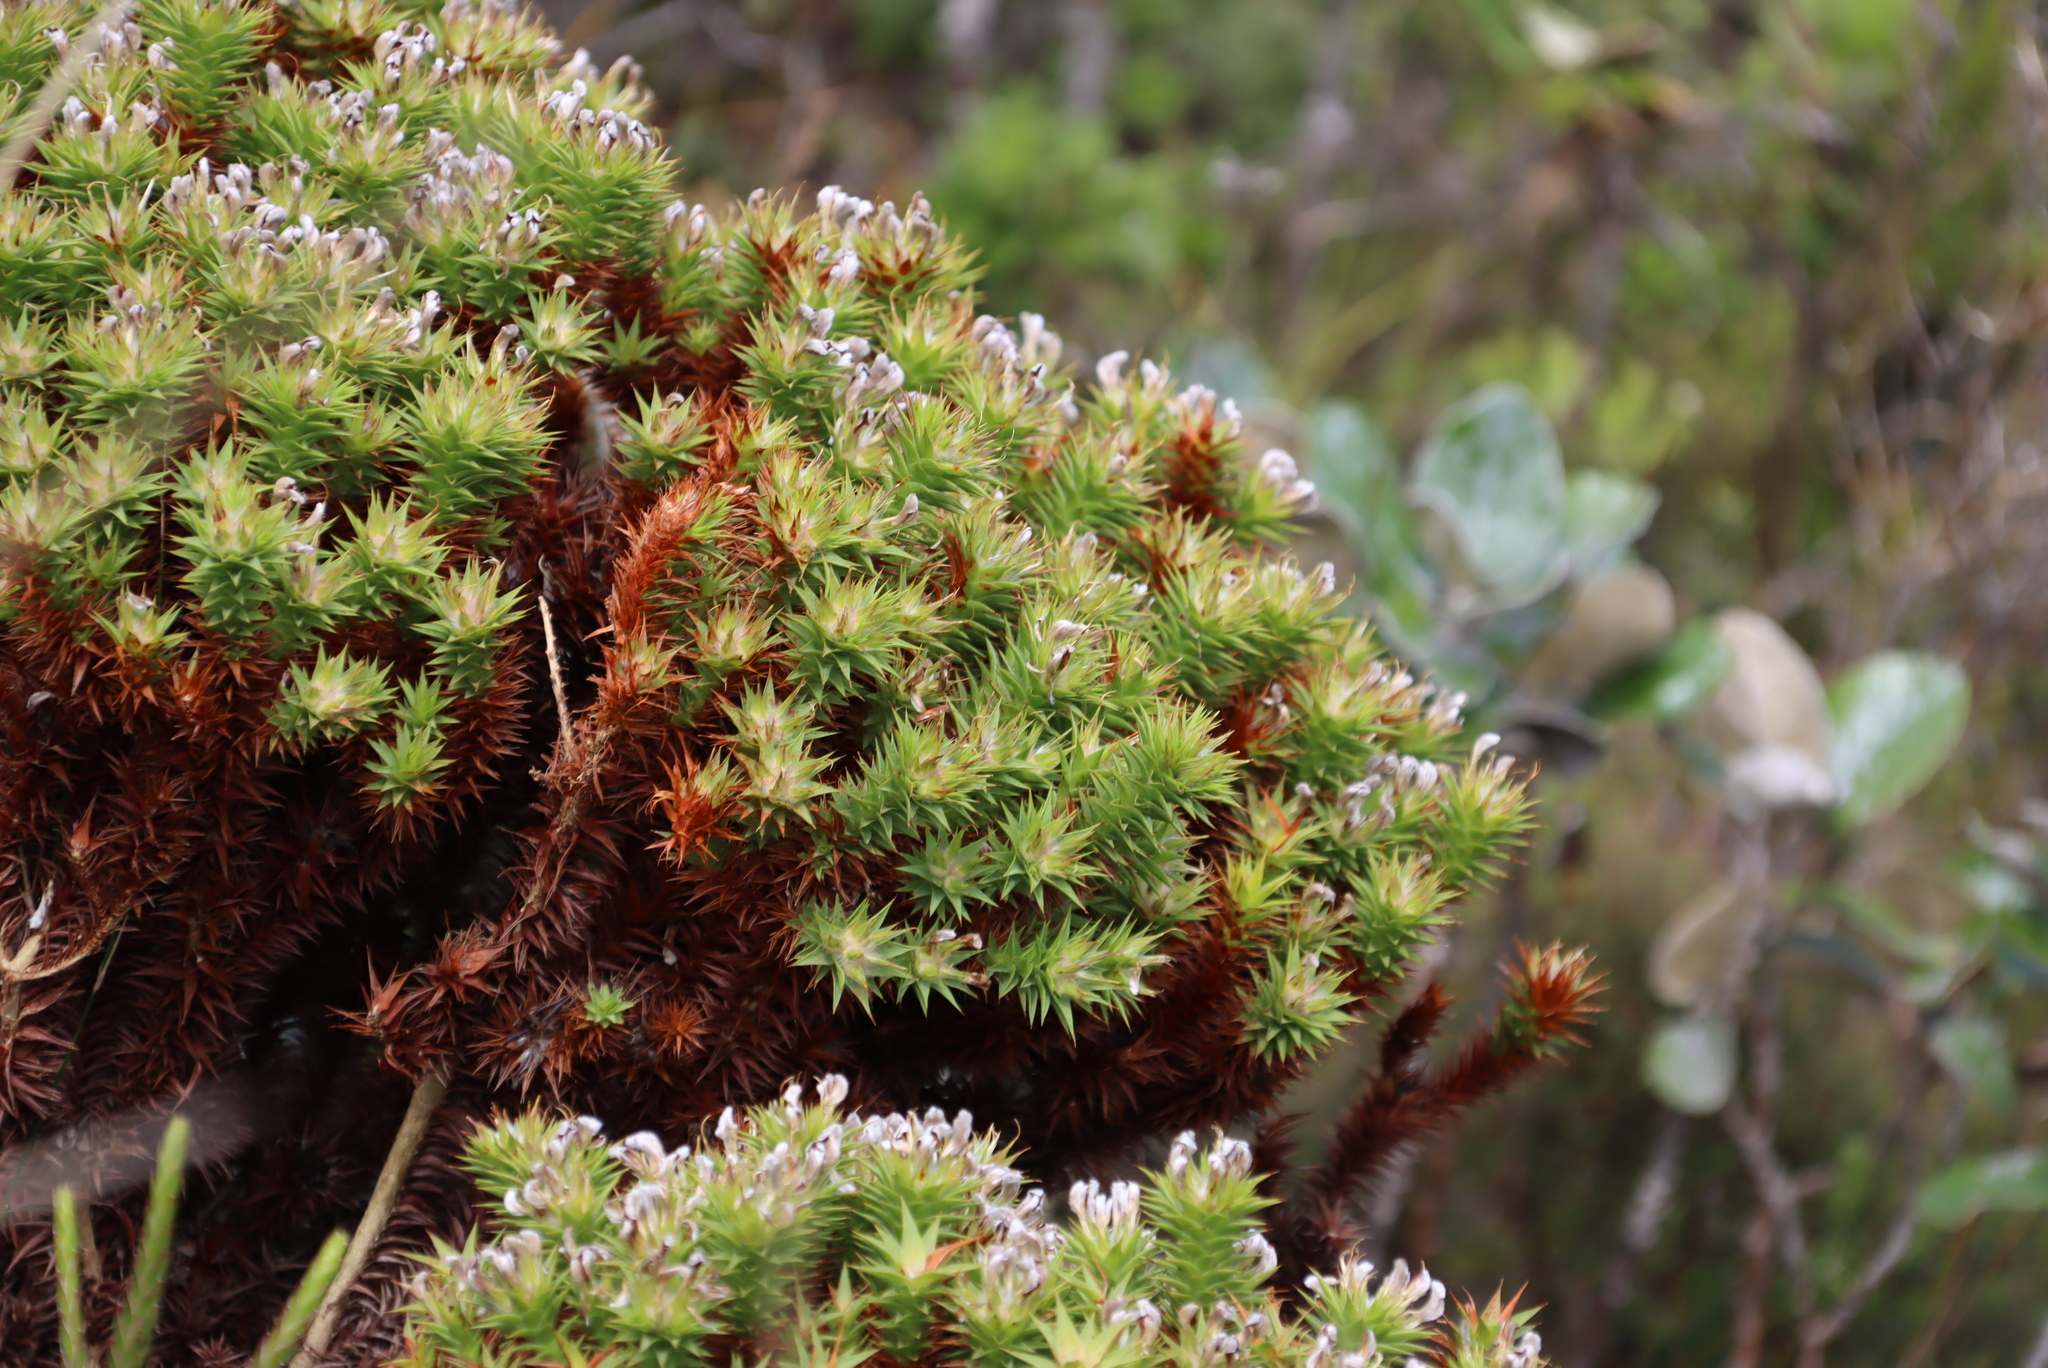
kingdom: Plantae
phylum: Tracheophyta
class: Magnoliopsida
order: Fabales
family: Fabaceae
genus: Aspalathus
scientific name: Aspalathus cordata
